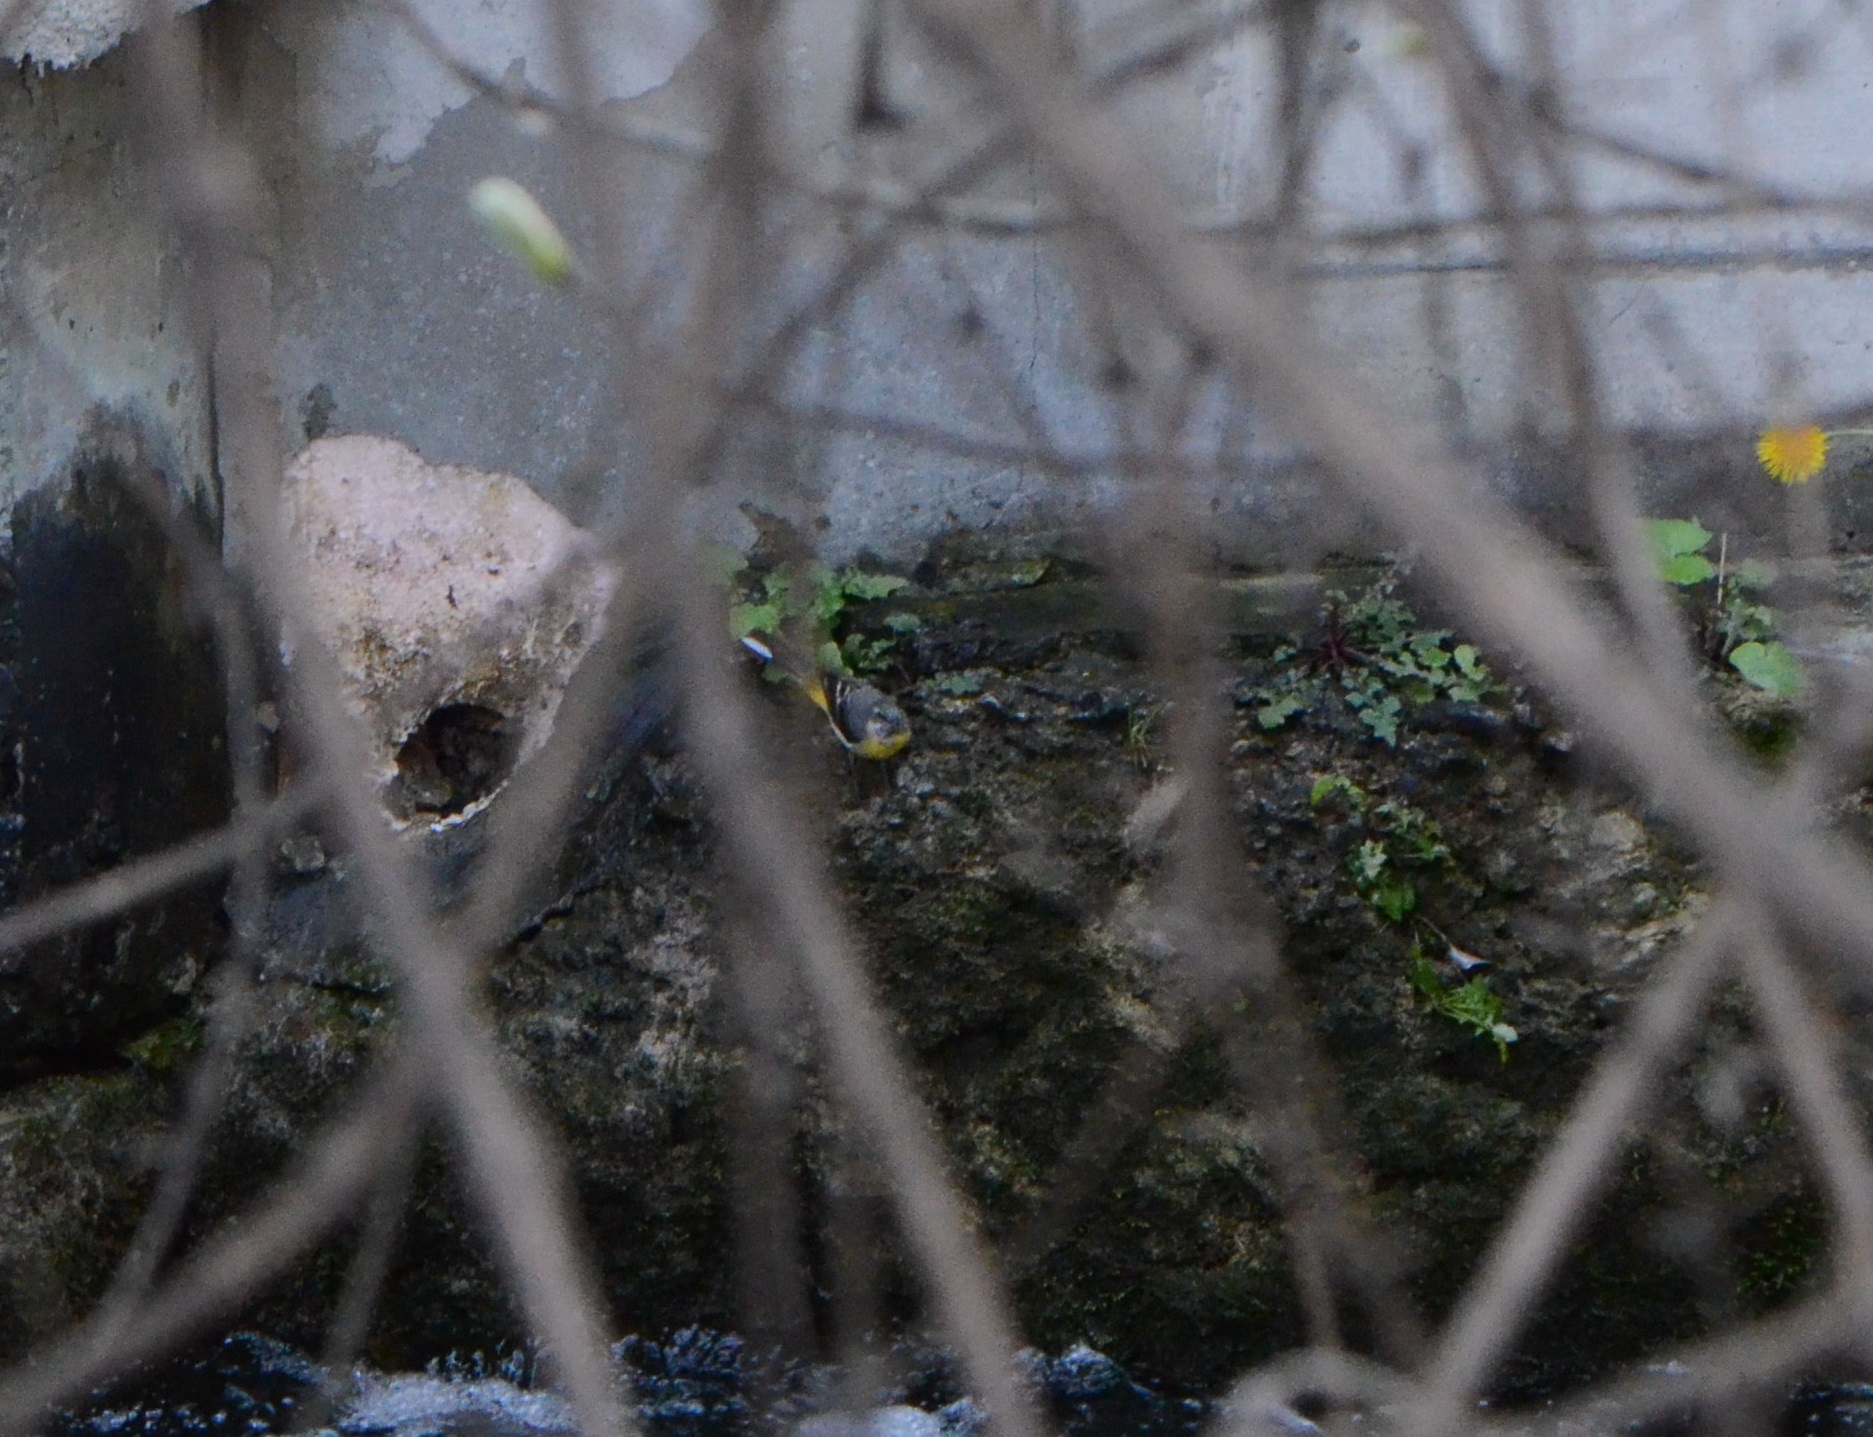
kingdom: Animalia
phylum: Chordata
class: Aves
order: Passeriformes
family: Motacillidae
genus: Motacilla
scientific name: Motacilla cinerea
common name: Grey wagtail
